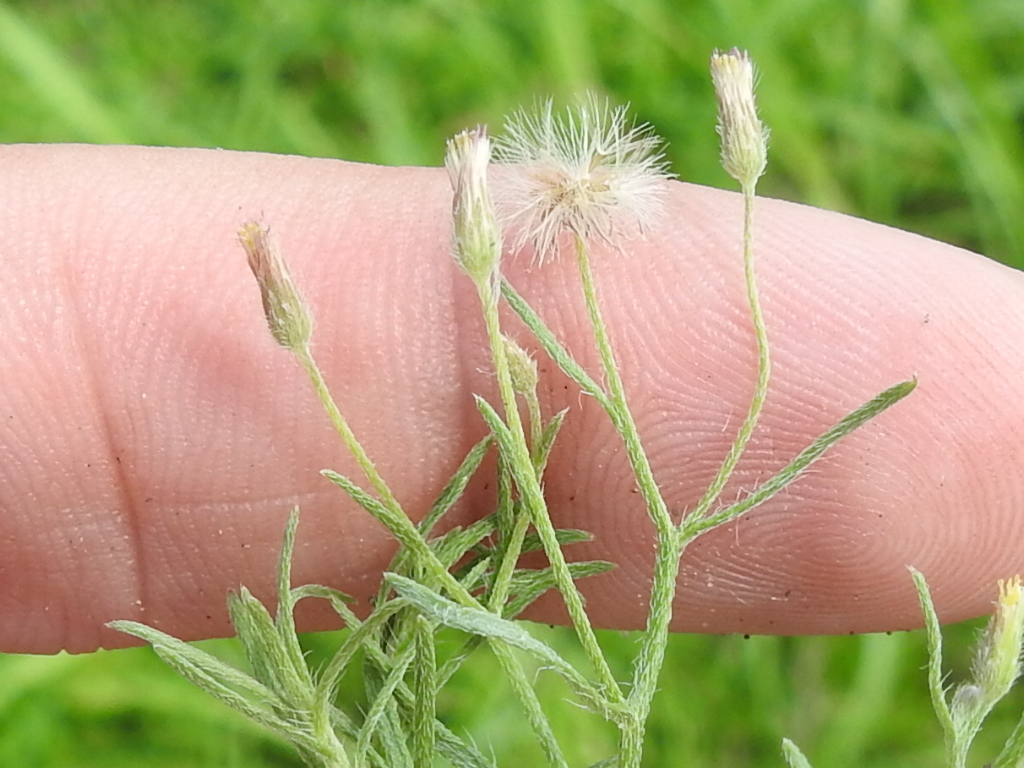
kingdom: Plantae
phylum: Tracheophyta
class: Magnoliopsida
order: Asterales
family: Asteraceae
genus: Erigeron
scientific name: Erigeron divaricatus
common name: Dwarf conyza
